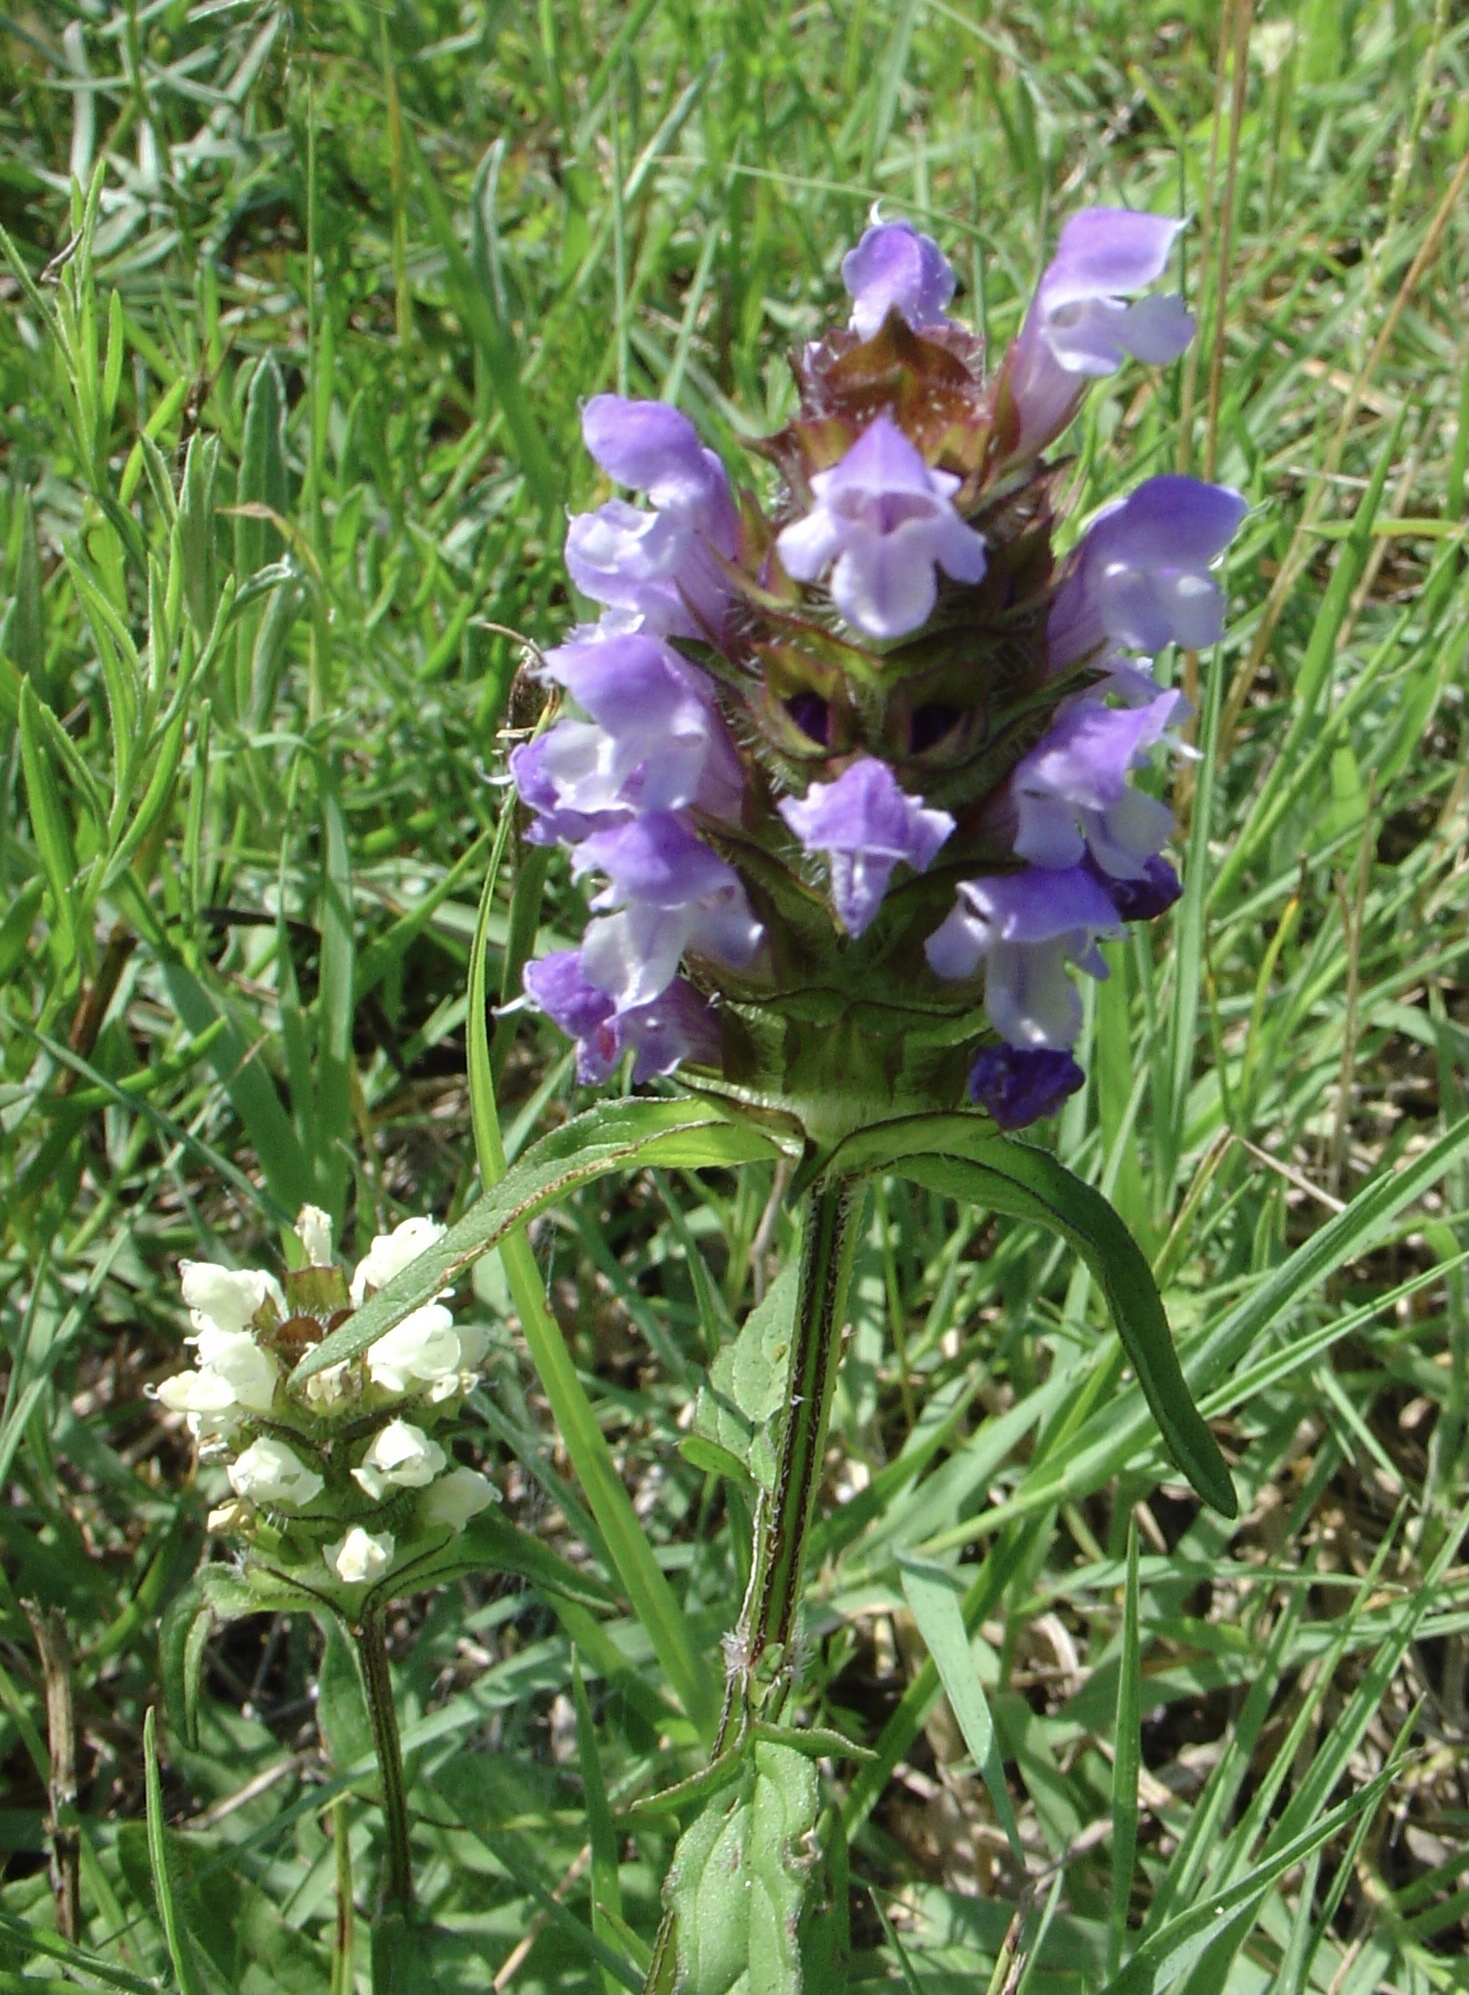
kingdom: Plantae
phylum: Tracheophyta
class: Magnoliopsida
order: Lamiales
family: Lamiaceae
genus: Prunella
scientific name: Prunella vulgaris
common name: Heal-all
